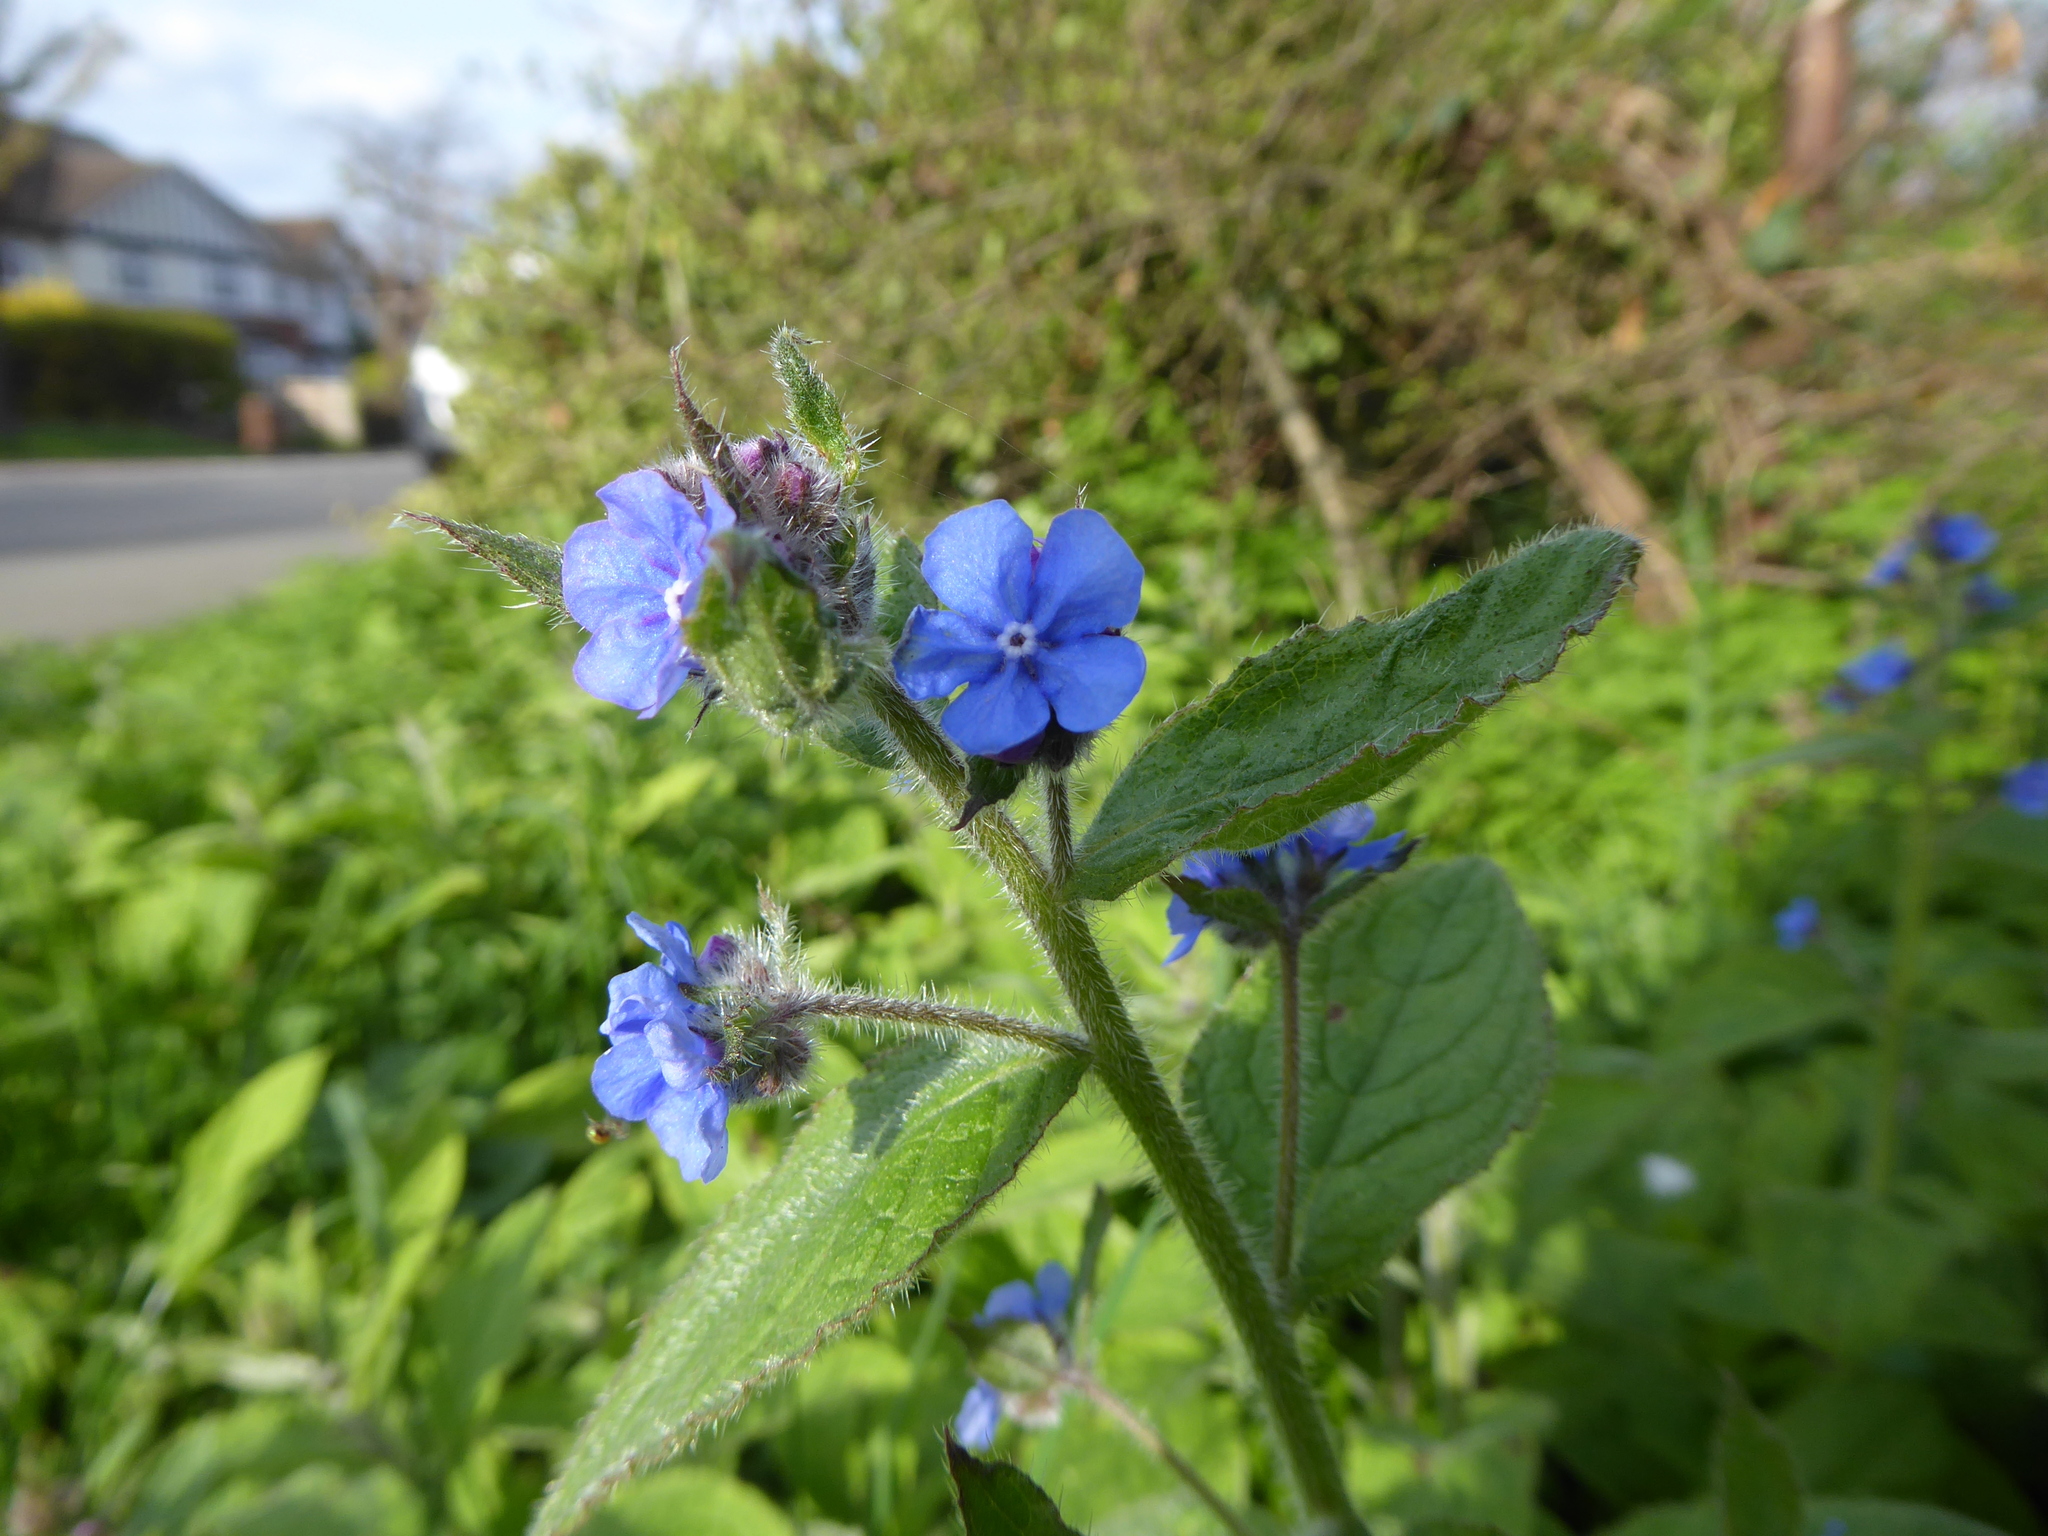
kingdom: Plantae
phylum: Tracheophyta
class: Magnoliopsida
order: Boraginales
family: Boraginaceae
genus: Pentaglottis
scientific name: Pentaglottis sempervirens
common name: Green alkanet
